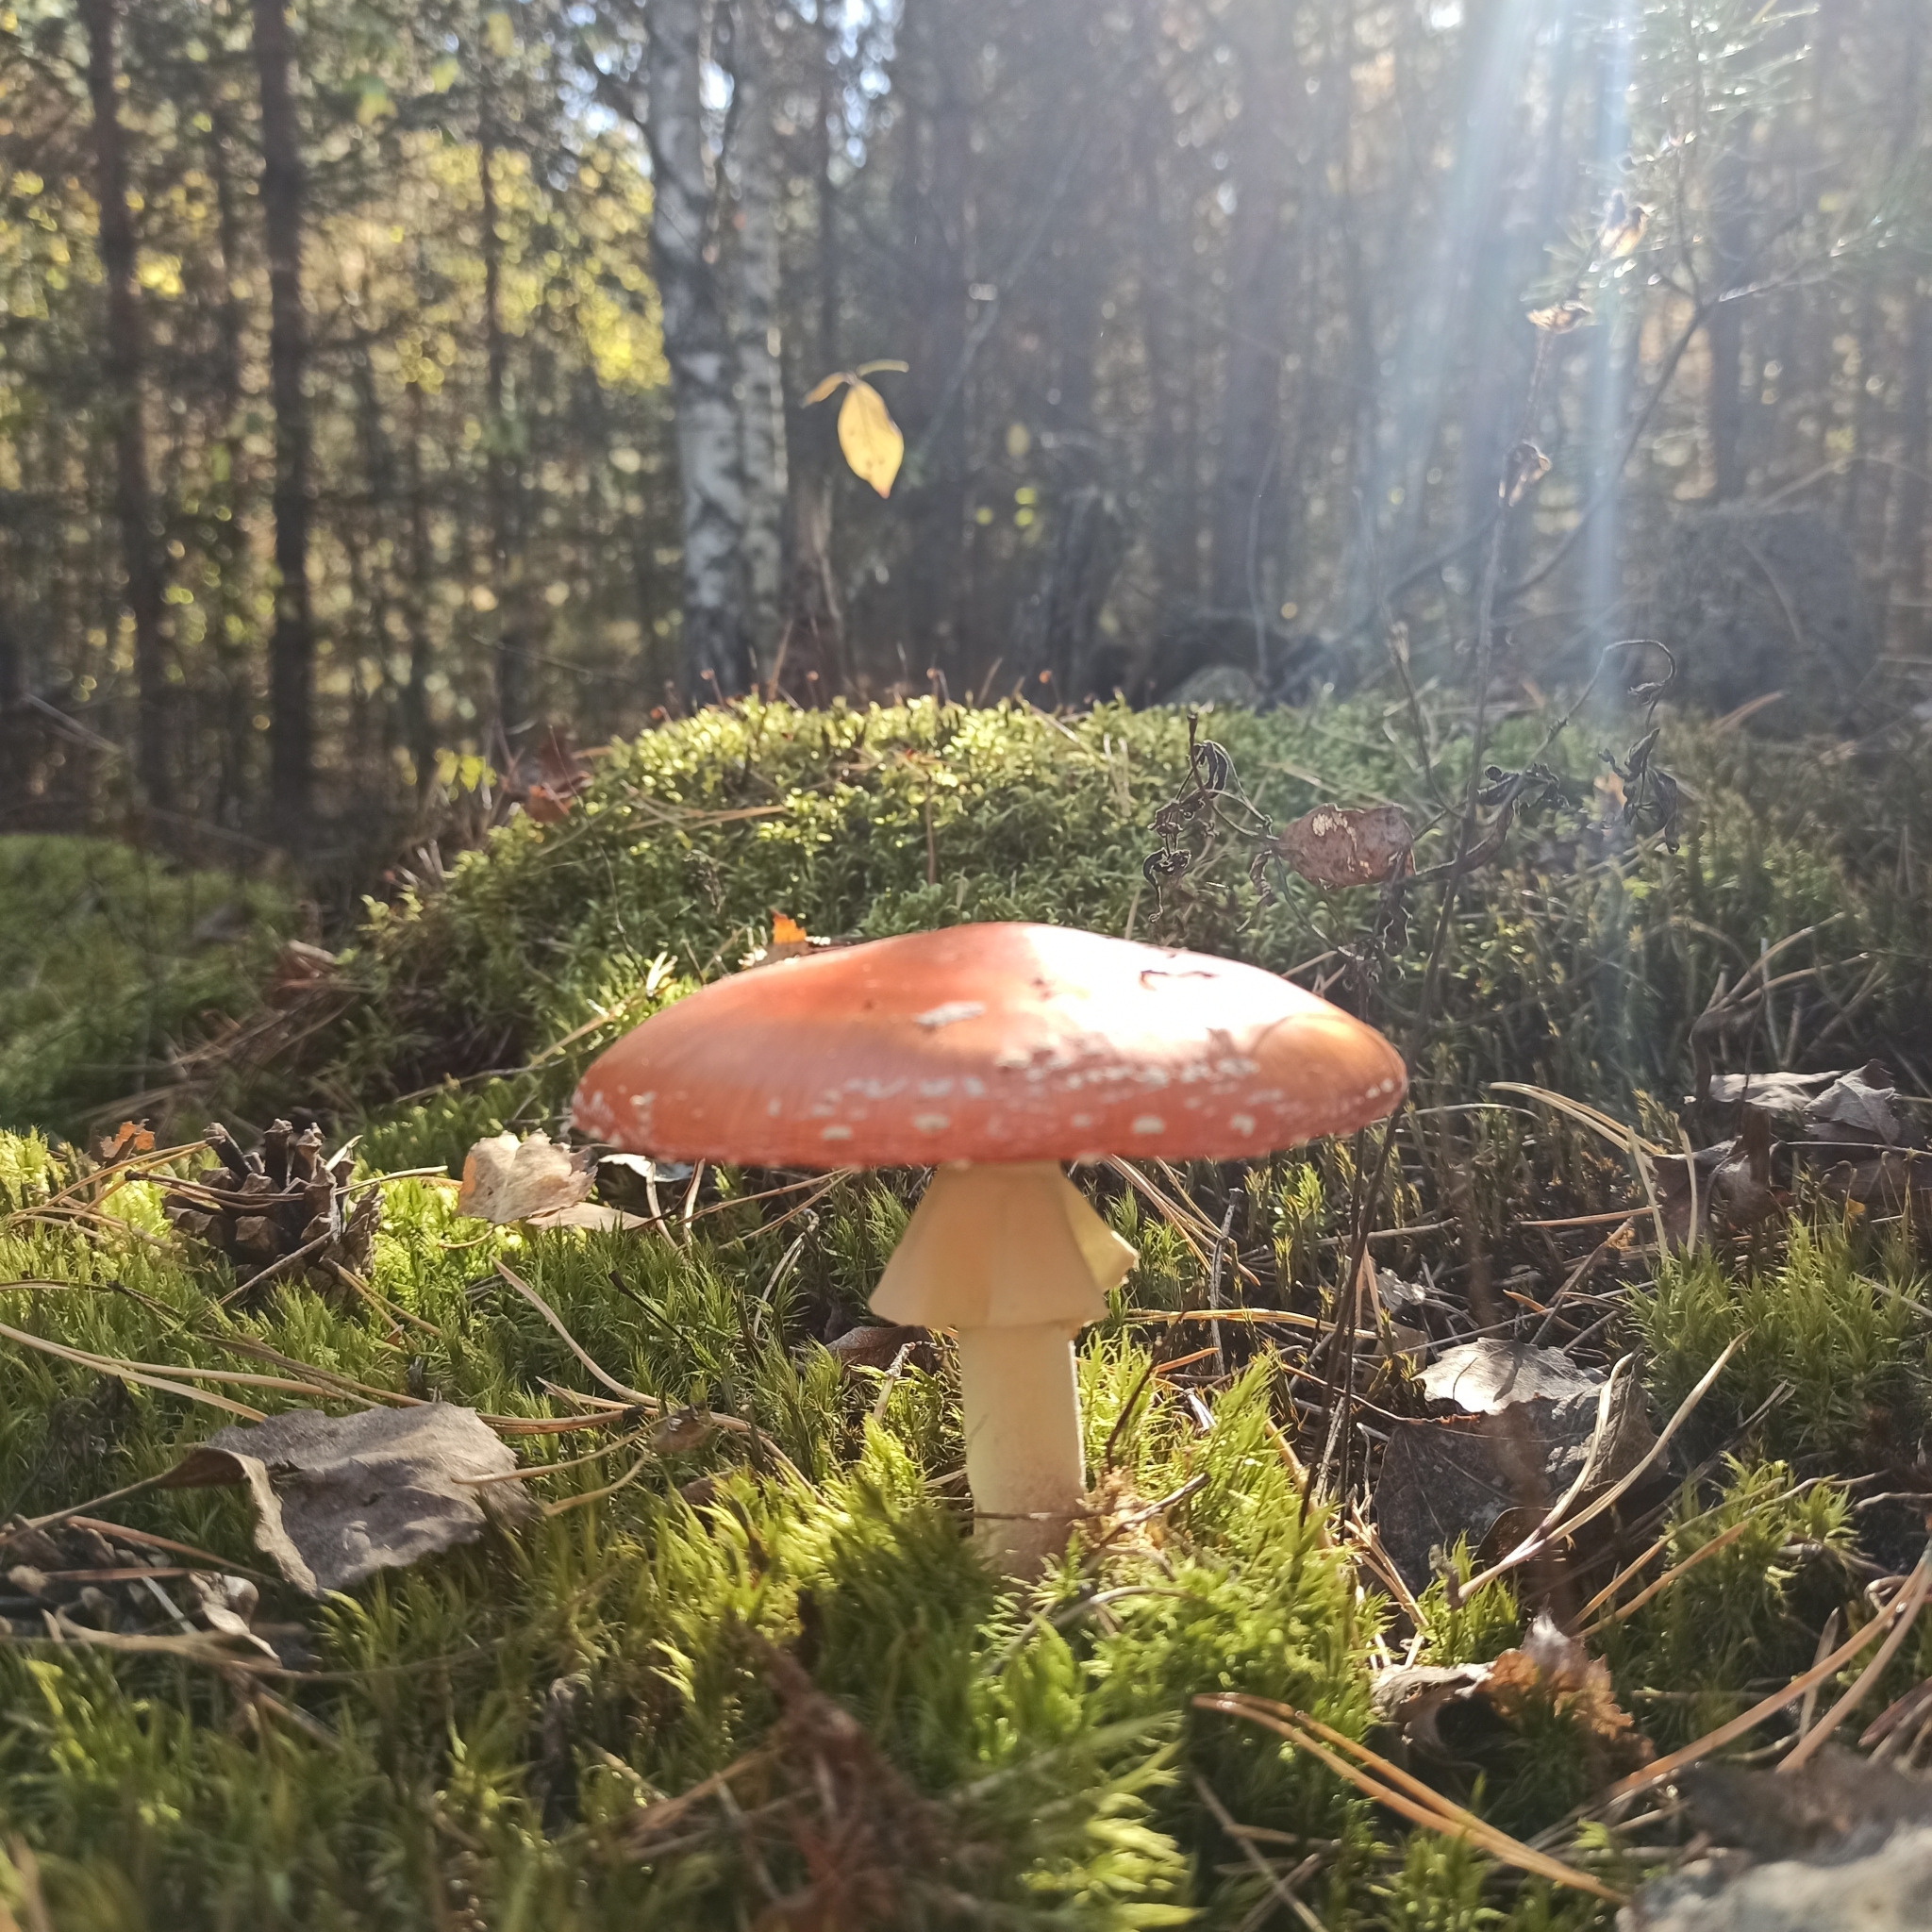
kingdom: Fungi
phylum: Basidiomycota
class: Agaricomycetes
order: Agaricales
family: Amanitaceae
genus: Amanita
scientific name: Amanita muscaria
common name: Fly agaric
